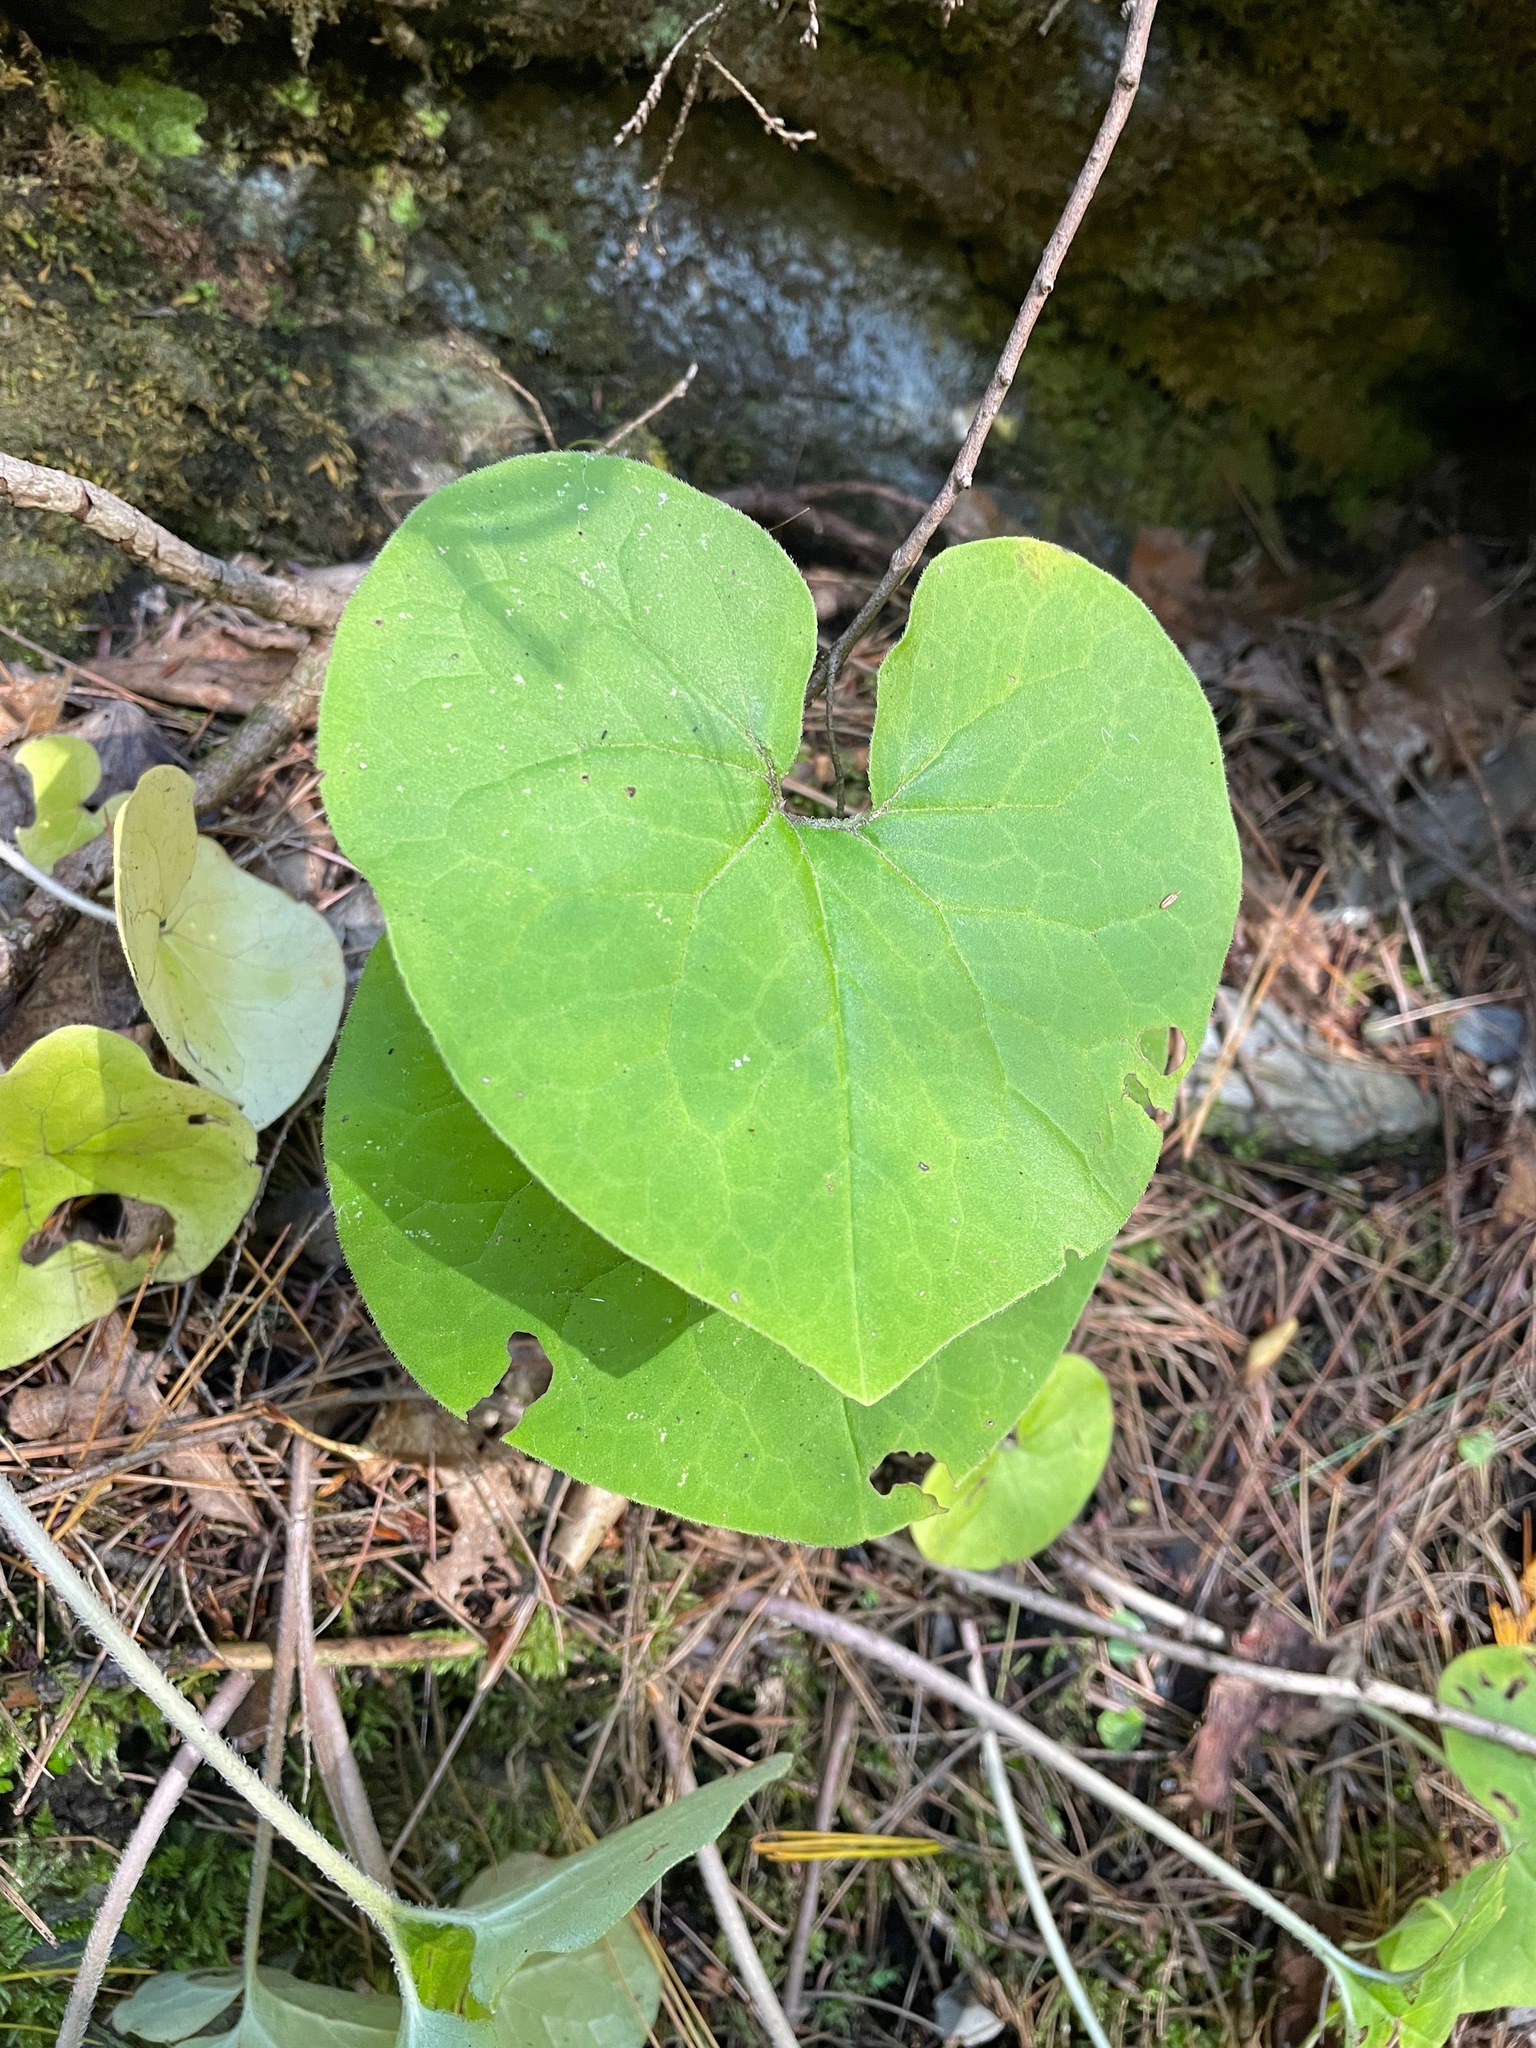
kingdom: Plantae
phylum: Tracheophyta
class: Magnoliopsida
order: Piperales
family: Aristolochiaceae
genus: Asarum
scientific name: Asarum canadense
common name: Wild ginger
